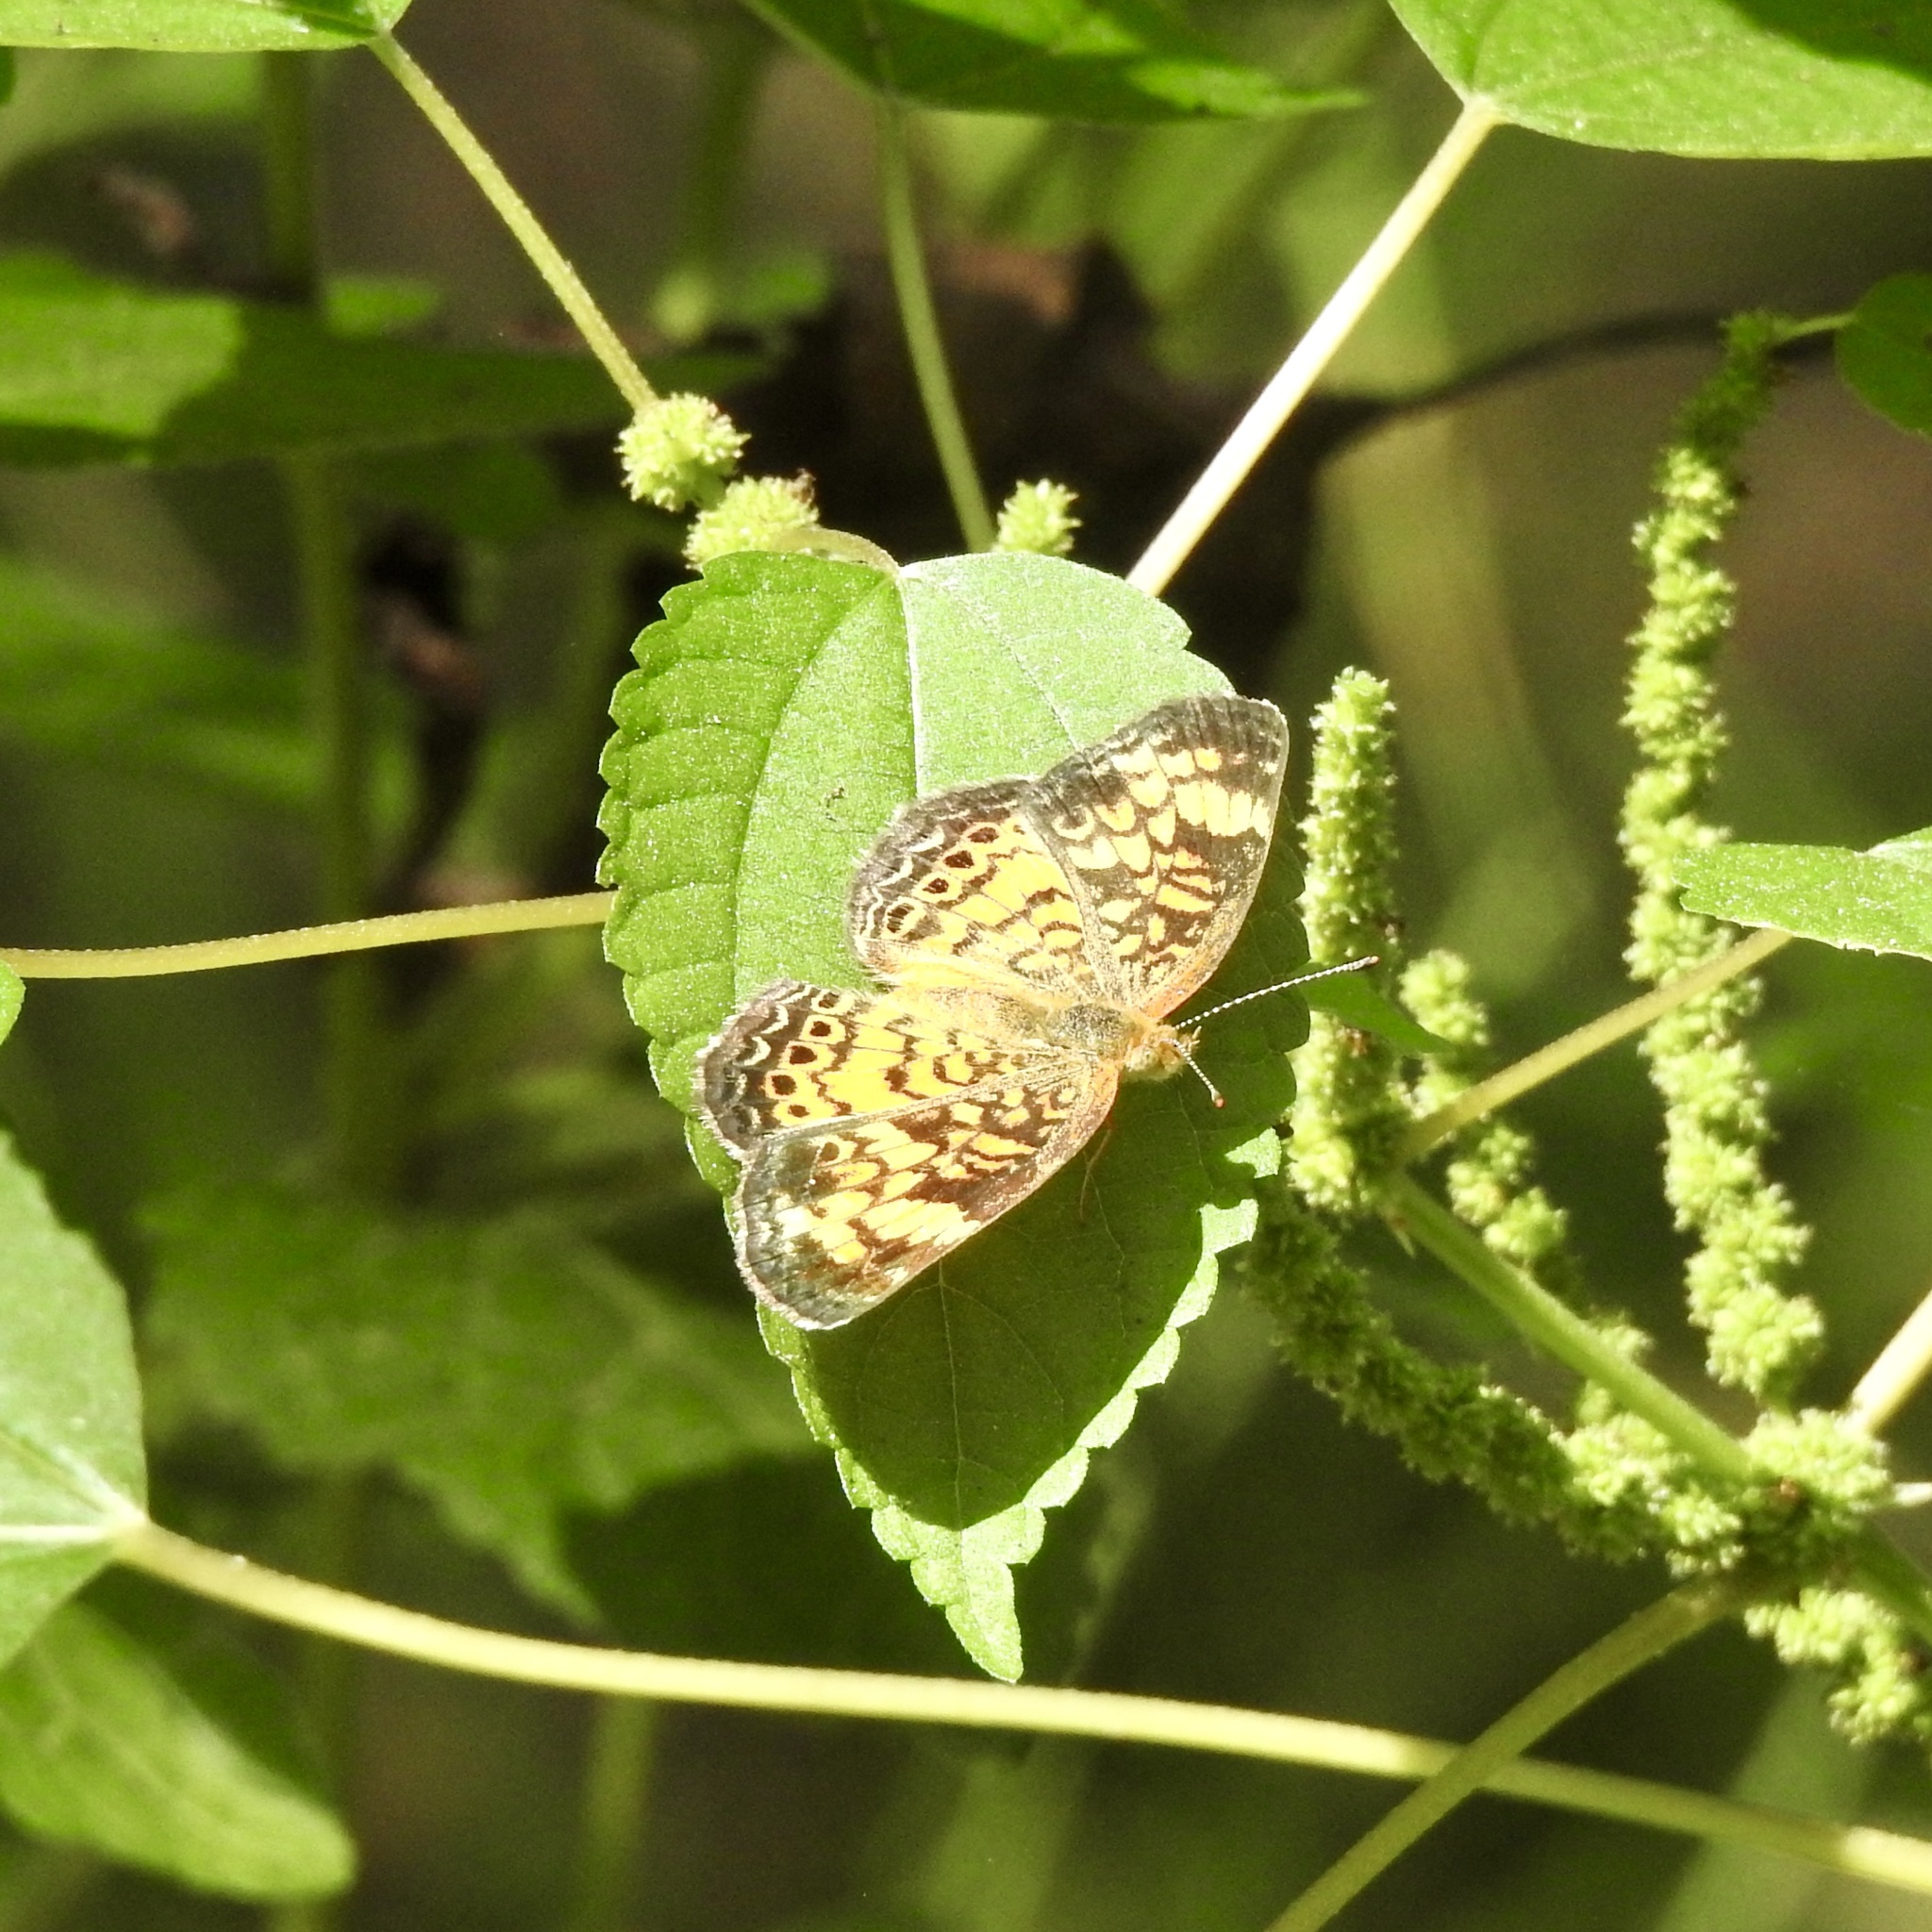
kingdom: Animalia
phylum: Arthropoda
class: Insecta
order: Lepidoptera
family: Nymphalidae
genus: Phyciodes
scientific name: Phyciodes tharos
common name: Pearl crescent
